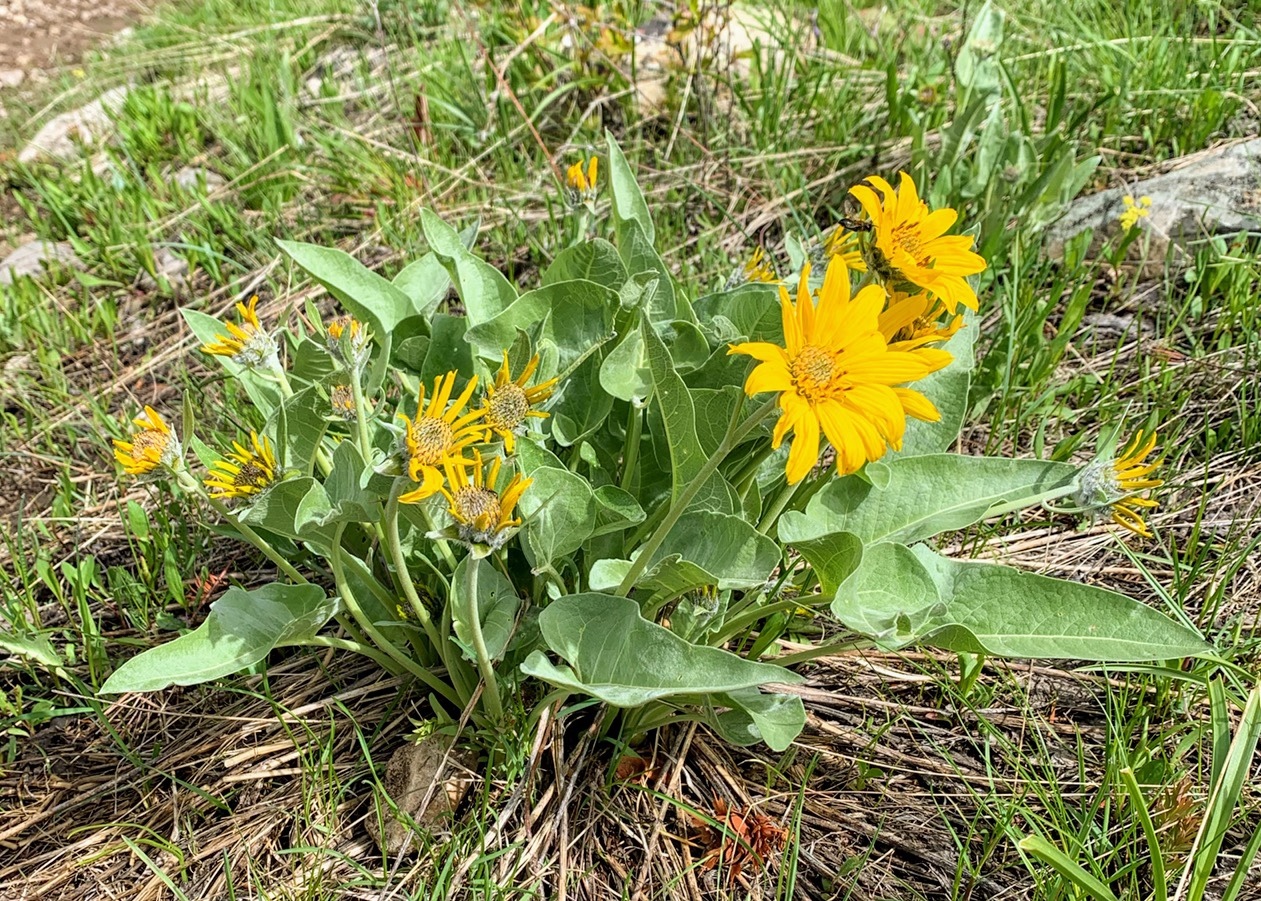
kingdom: Plantae
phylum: Tracheophyta
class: Magnoliopsida
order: Asterales
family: Asteraceae
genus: Wyethia
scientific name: Wyethia sagittata
